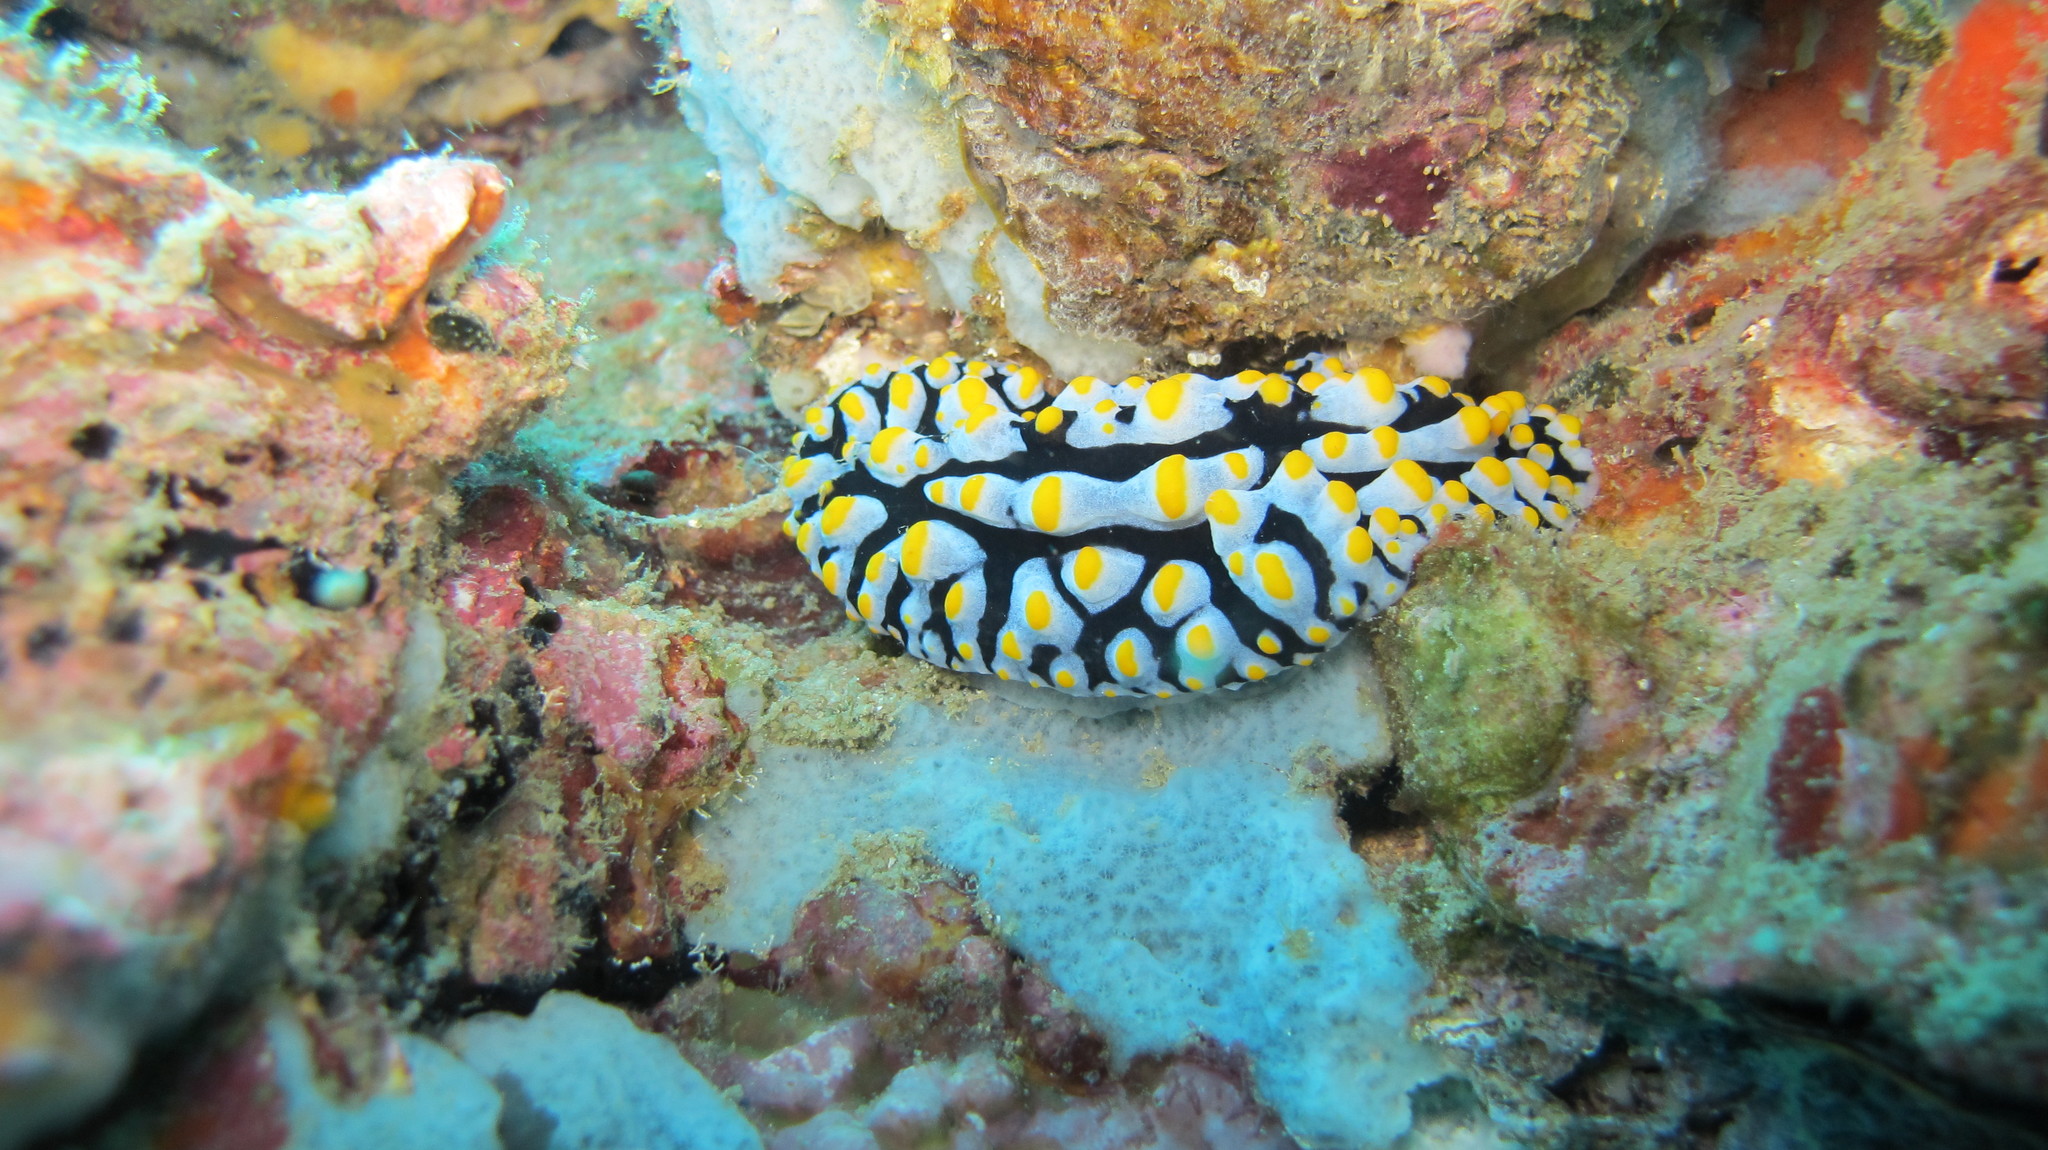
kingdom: Animalia
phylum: Mollusca
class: Gastropoda
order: Nudibranchia
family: Phyllidiidae
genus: Phyllidia
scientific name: Phyllidia varicosa
